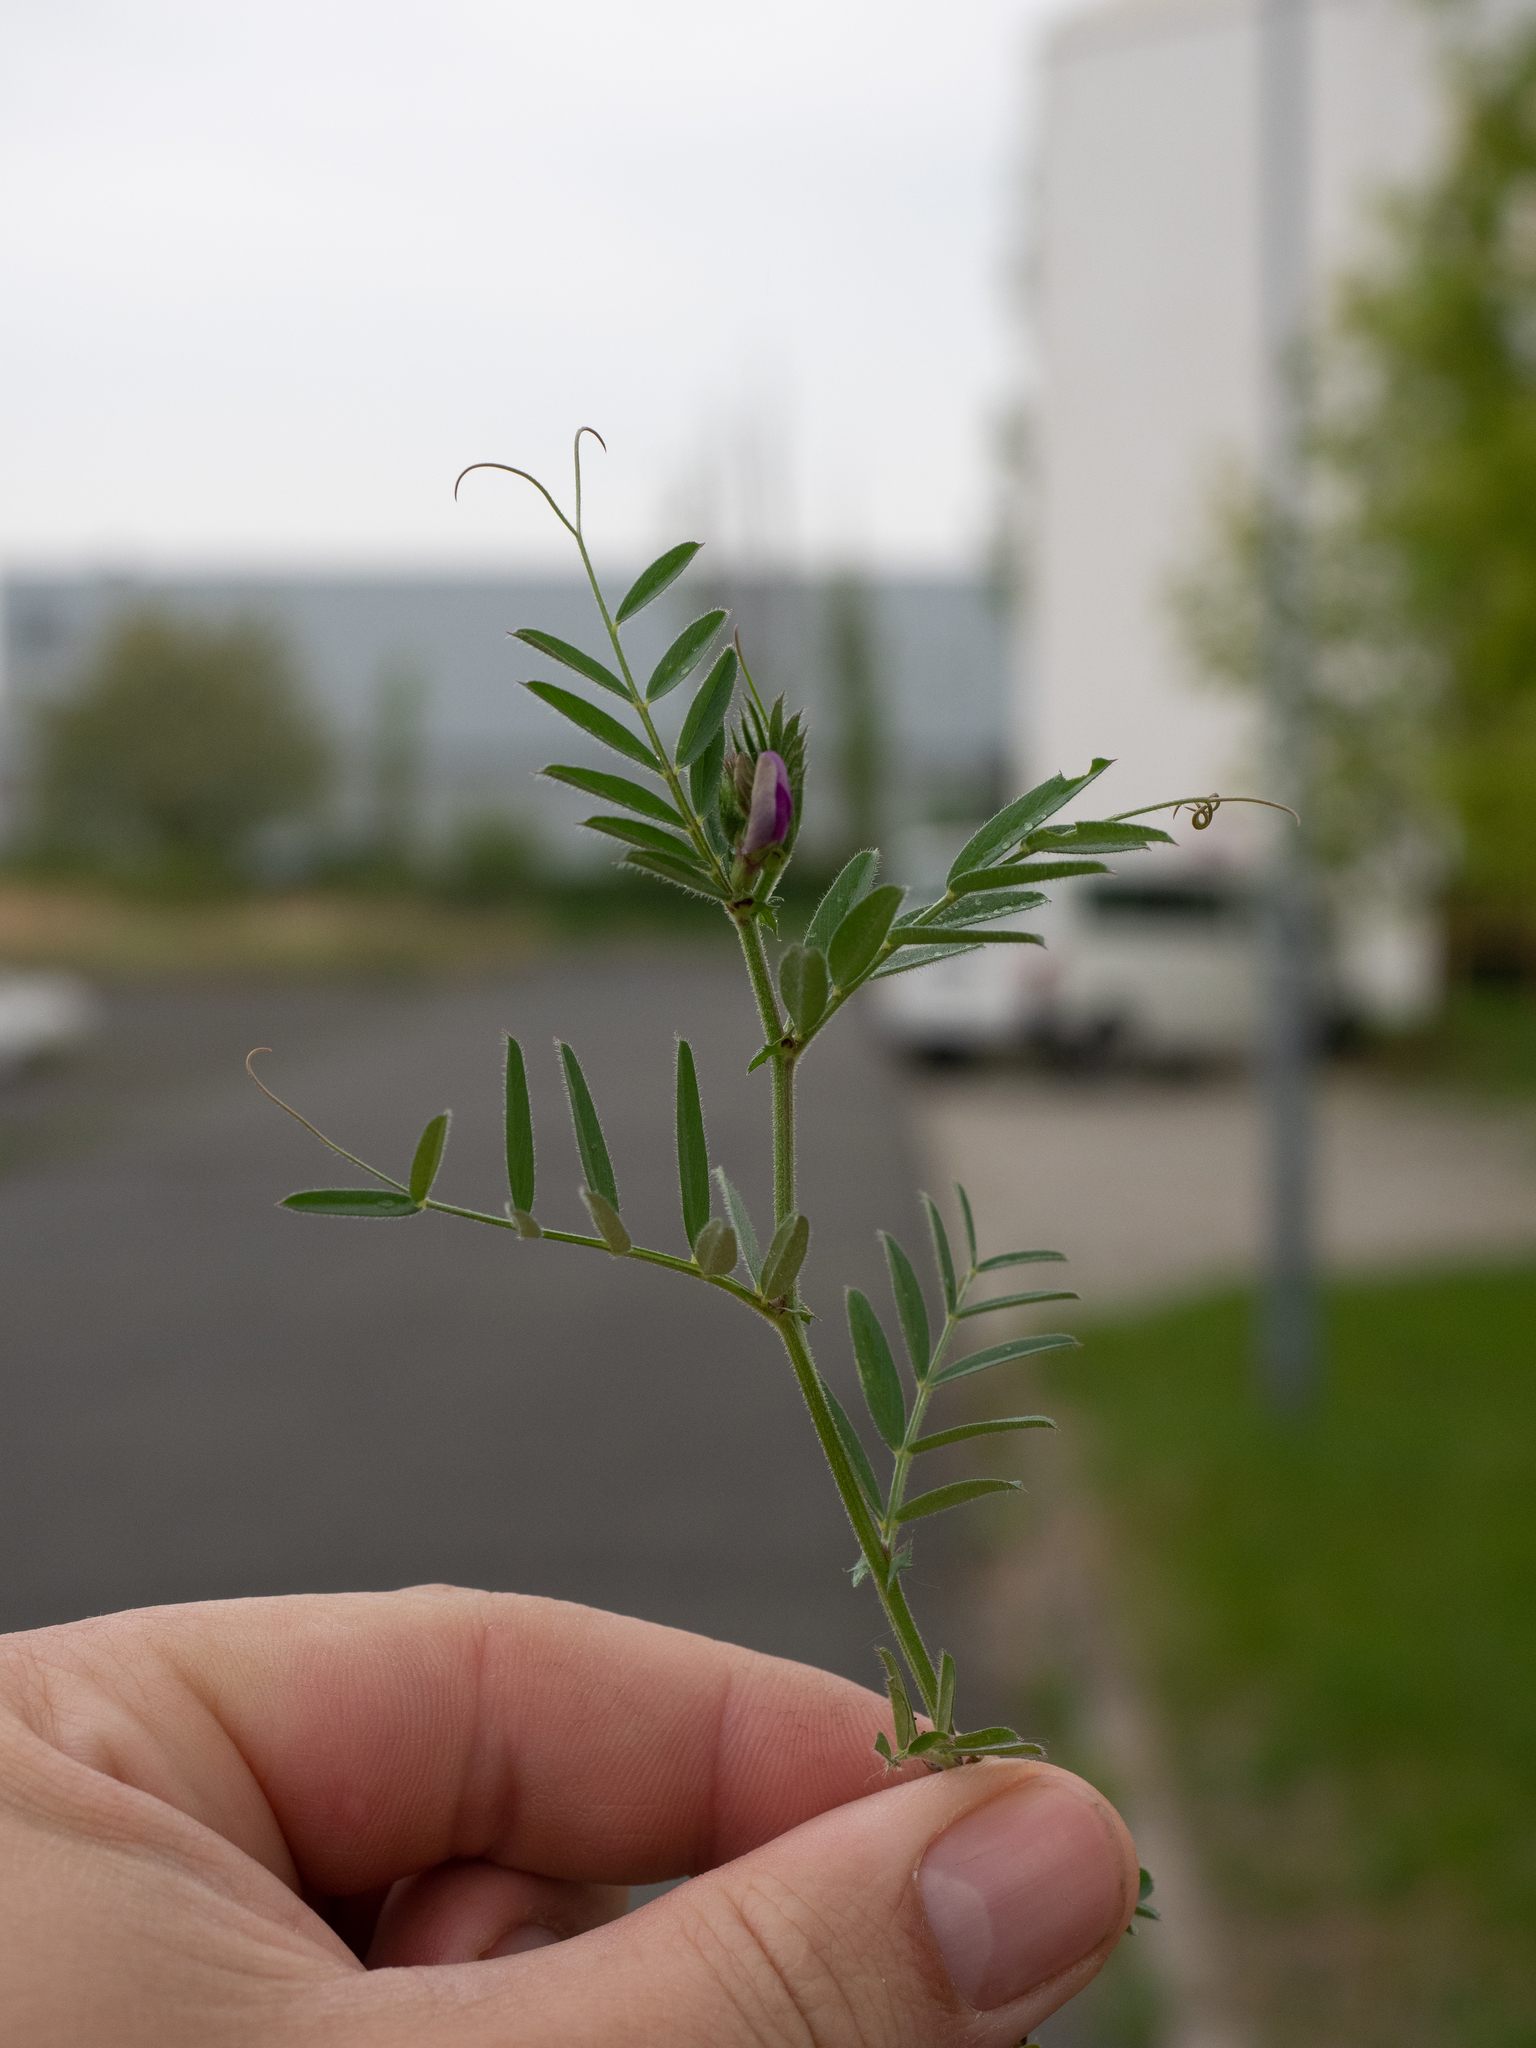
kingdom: Plantae
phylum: Tracheophyta
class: Magnoliopsida
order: Fabales
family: Fabaceae
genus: Vicia
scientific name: Vicia sativa
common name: Garden vetch
